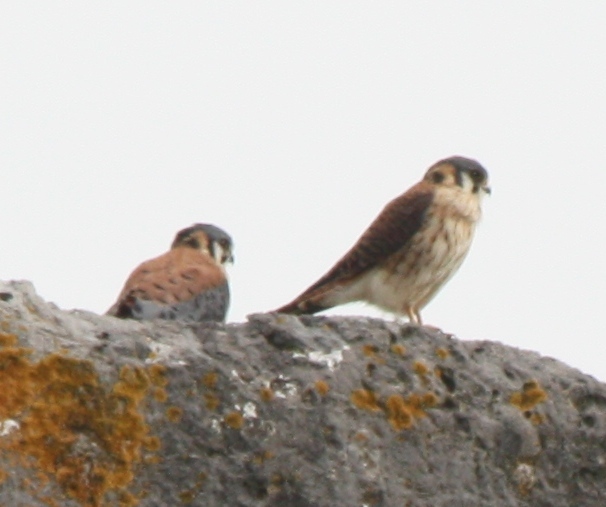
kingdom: Animalia
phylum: Chordata
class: Aves
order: Falconiformes
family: Falconidae
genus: Falco
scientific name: Falco sparverius
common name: American kestrel
